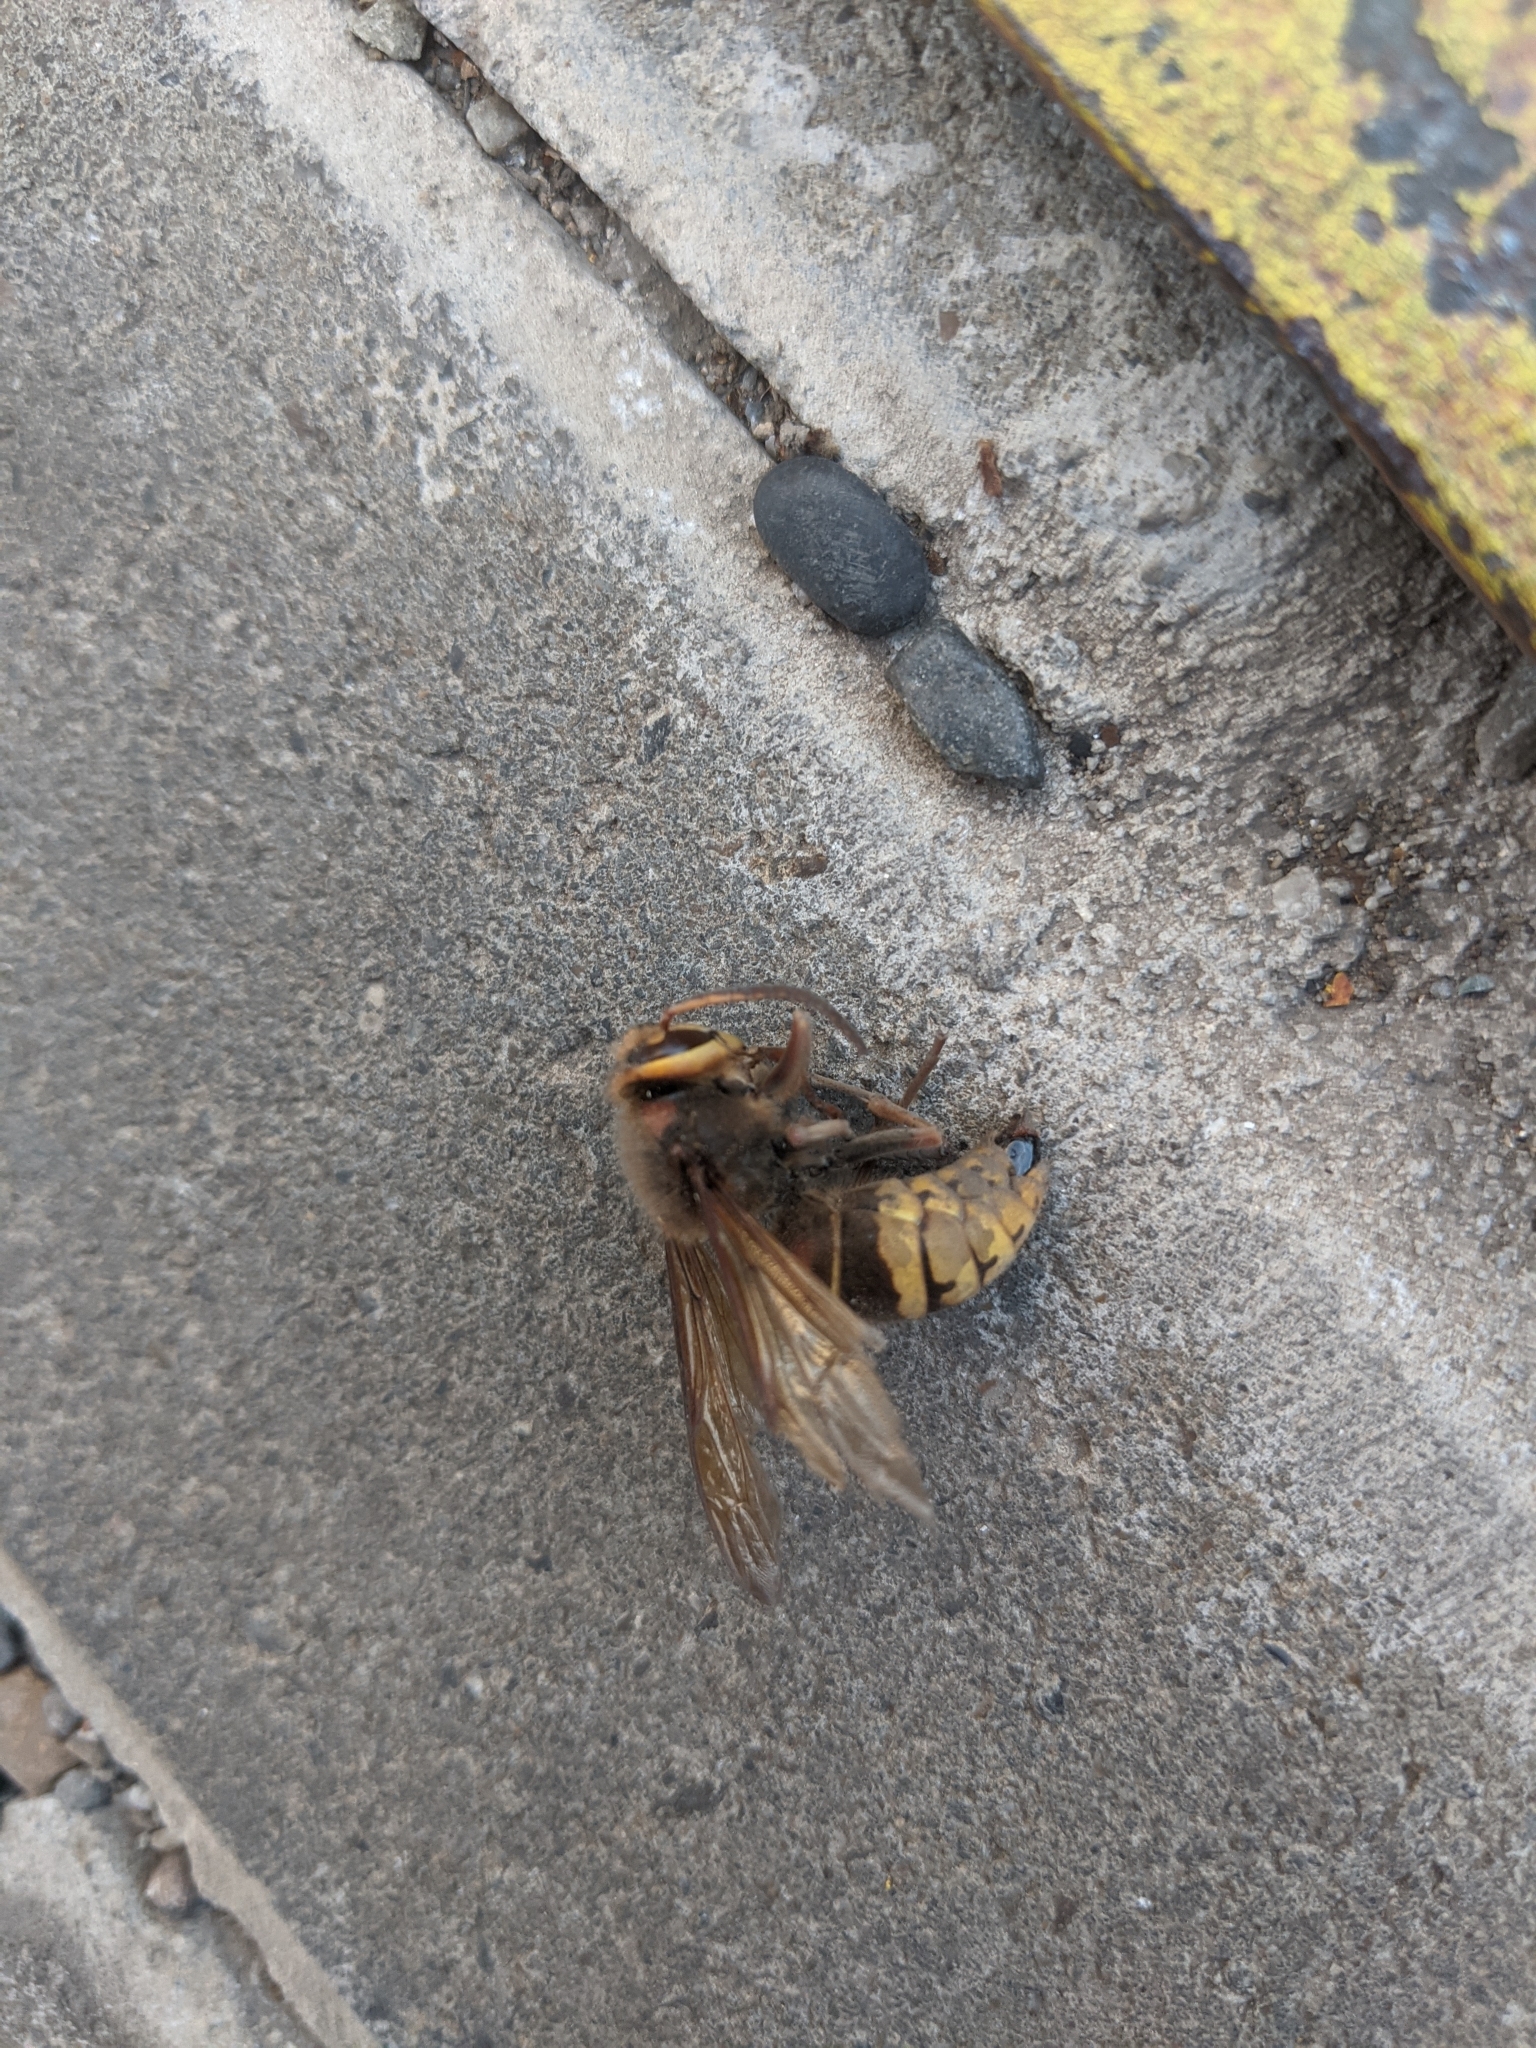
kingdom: Animalia
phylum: Arthropoda
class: Insecta
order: Hymenoptera
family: Vespidae
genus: Vespa
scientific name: Vespa crabro
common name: Hornet
